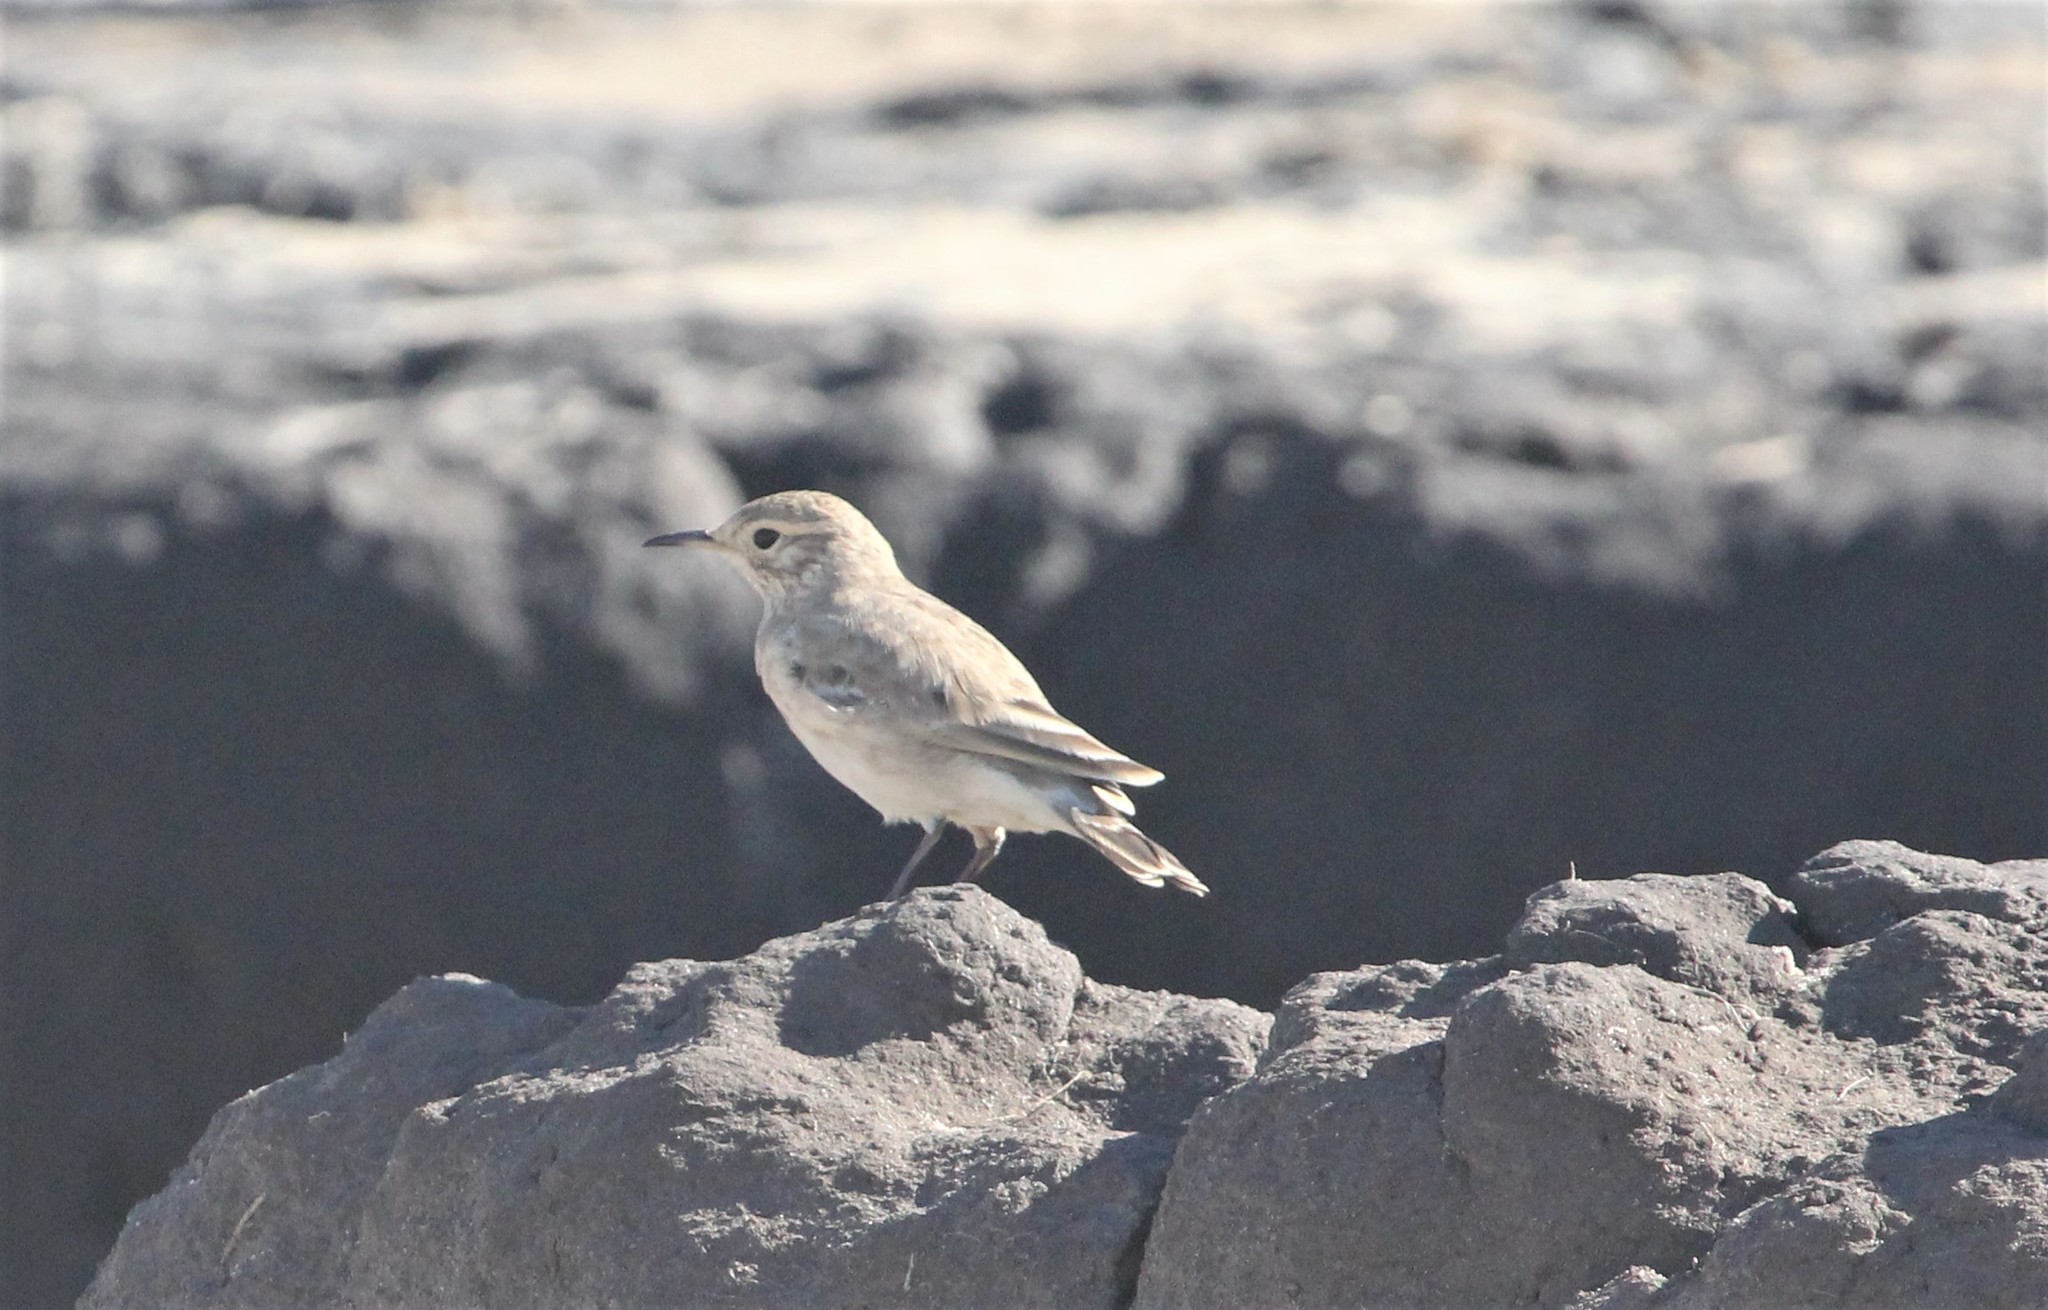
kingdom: Animalia
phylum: Chordata
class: Aves
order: Passeriformes
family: Furnariidae
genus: Geositta
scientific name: Geositta cunicularia
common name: Common miner
